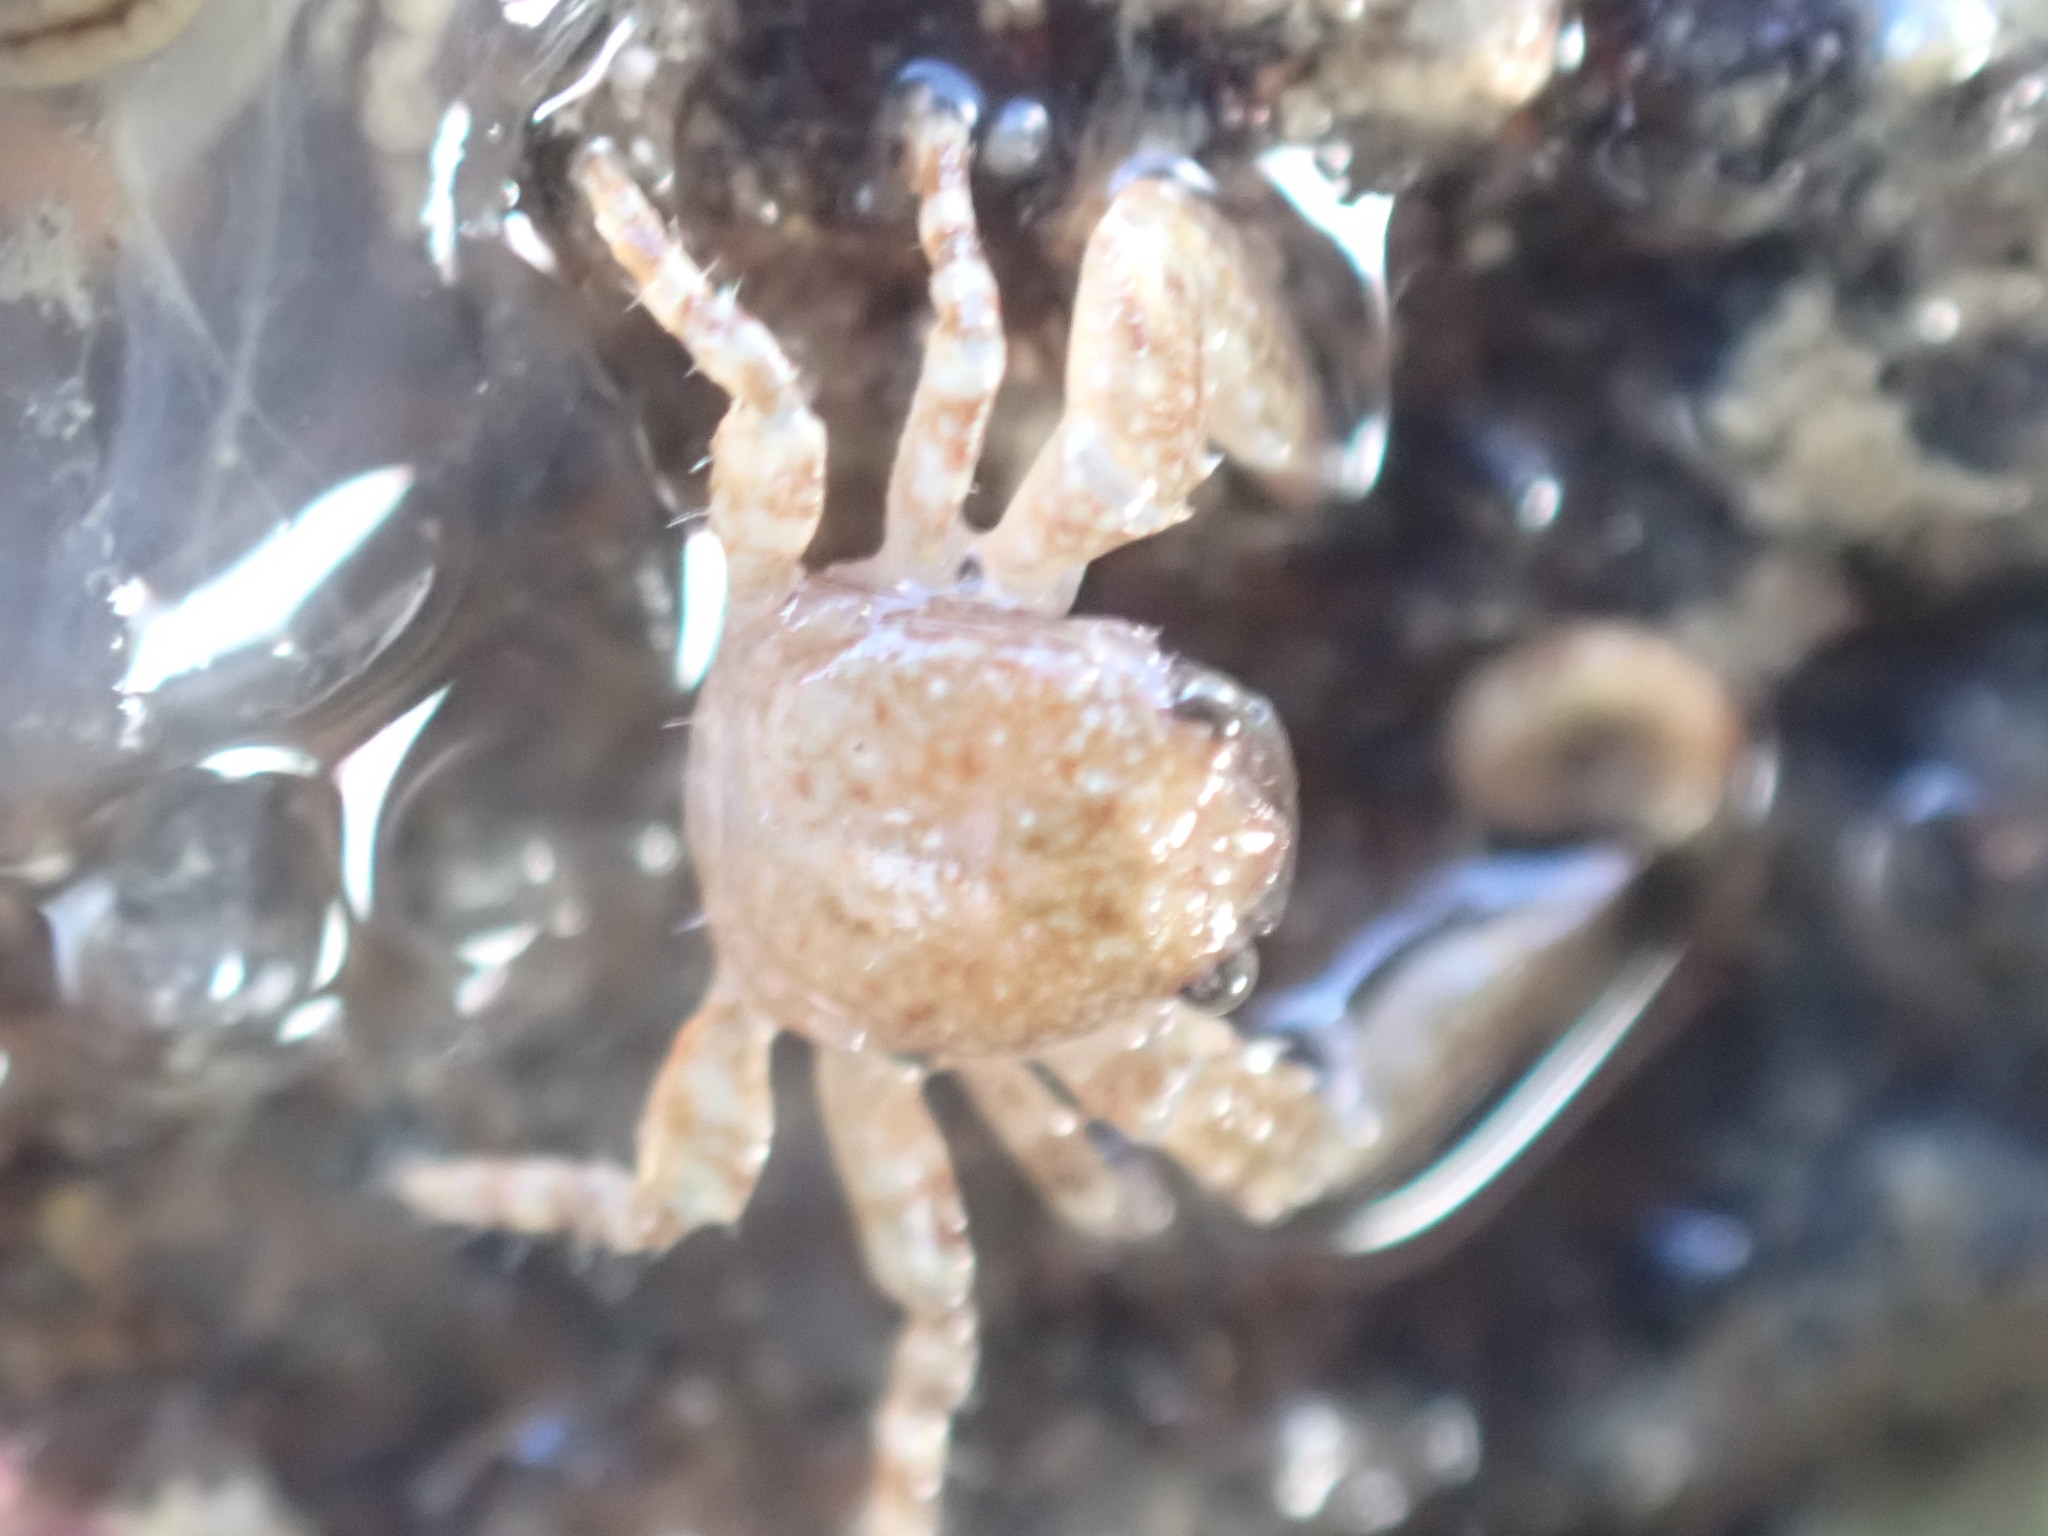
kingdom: Animalia
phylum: Arthropoda
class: Malacostraca
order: Decapoda
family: Porcellanidae
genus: Petrocheles
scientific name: Petrocheles spinosus
